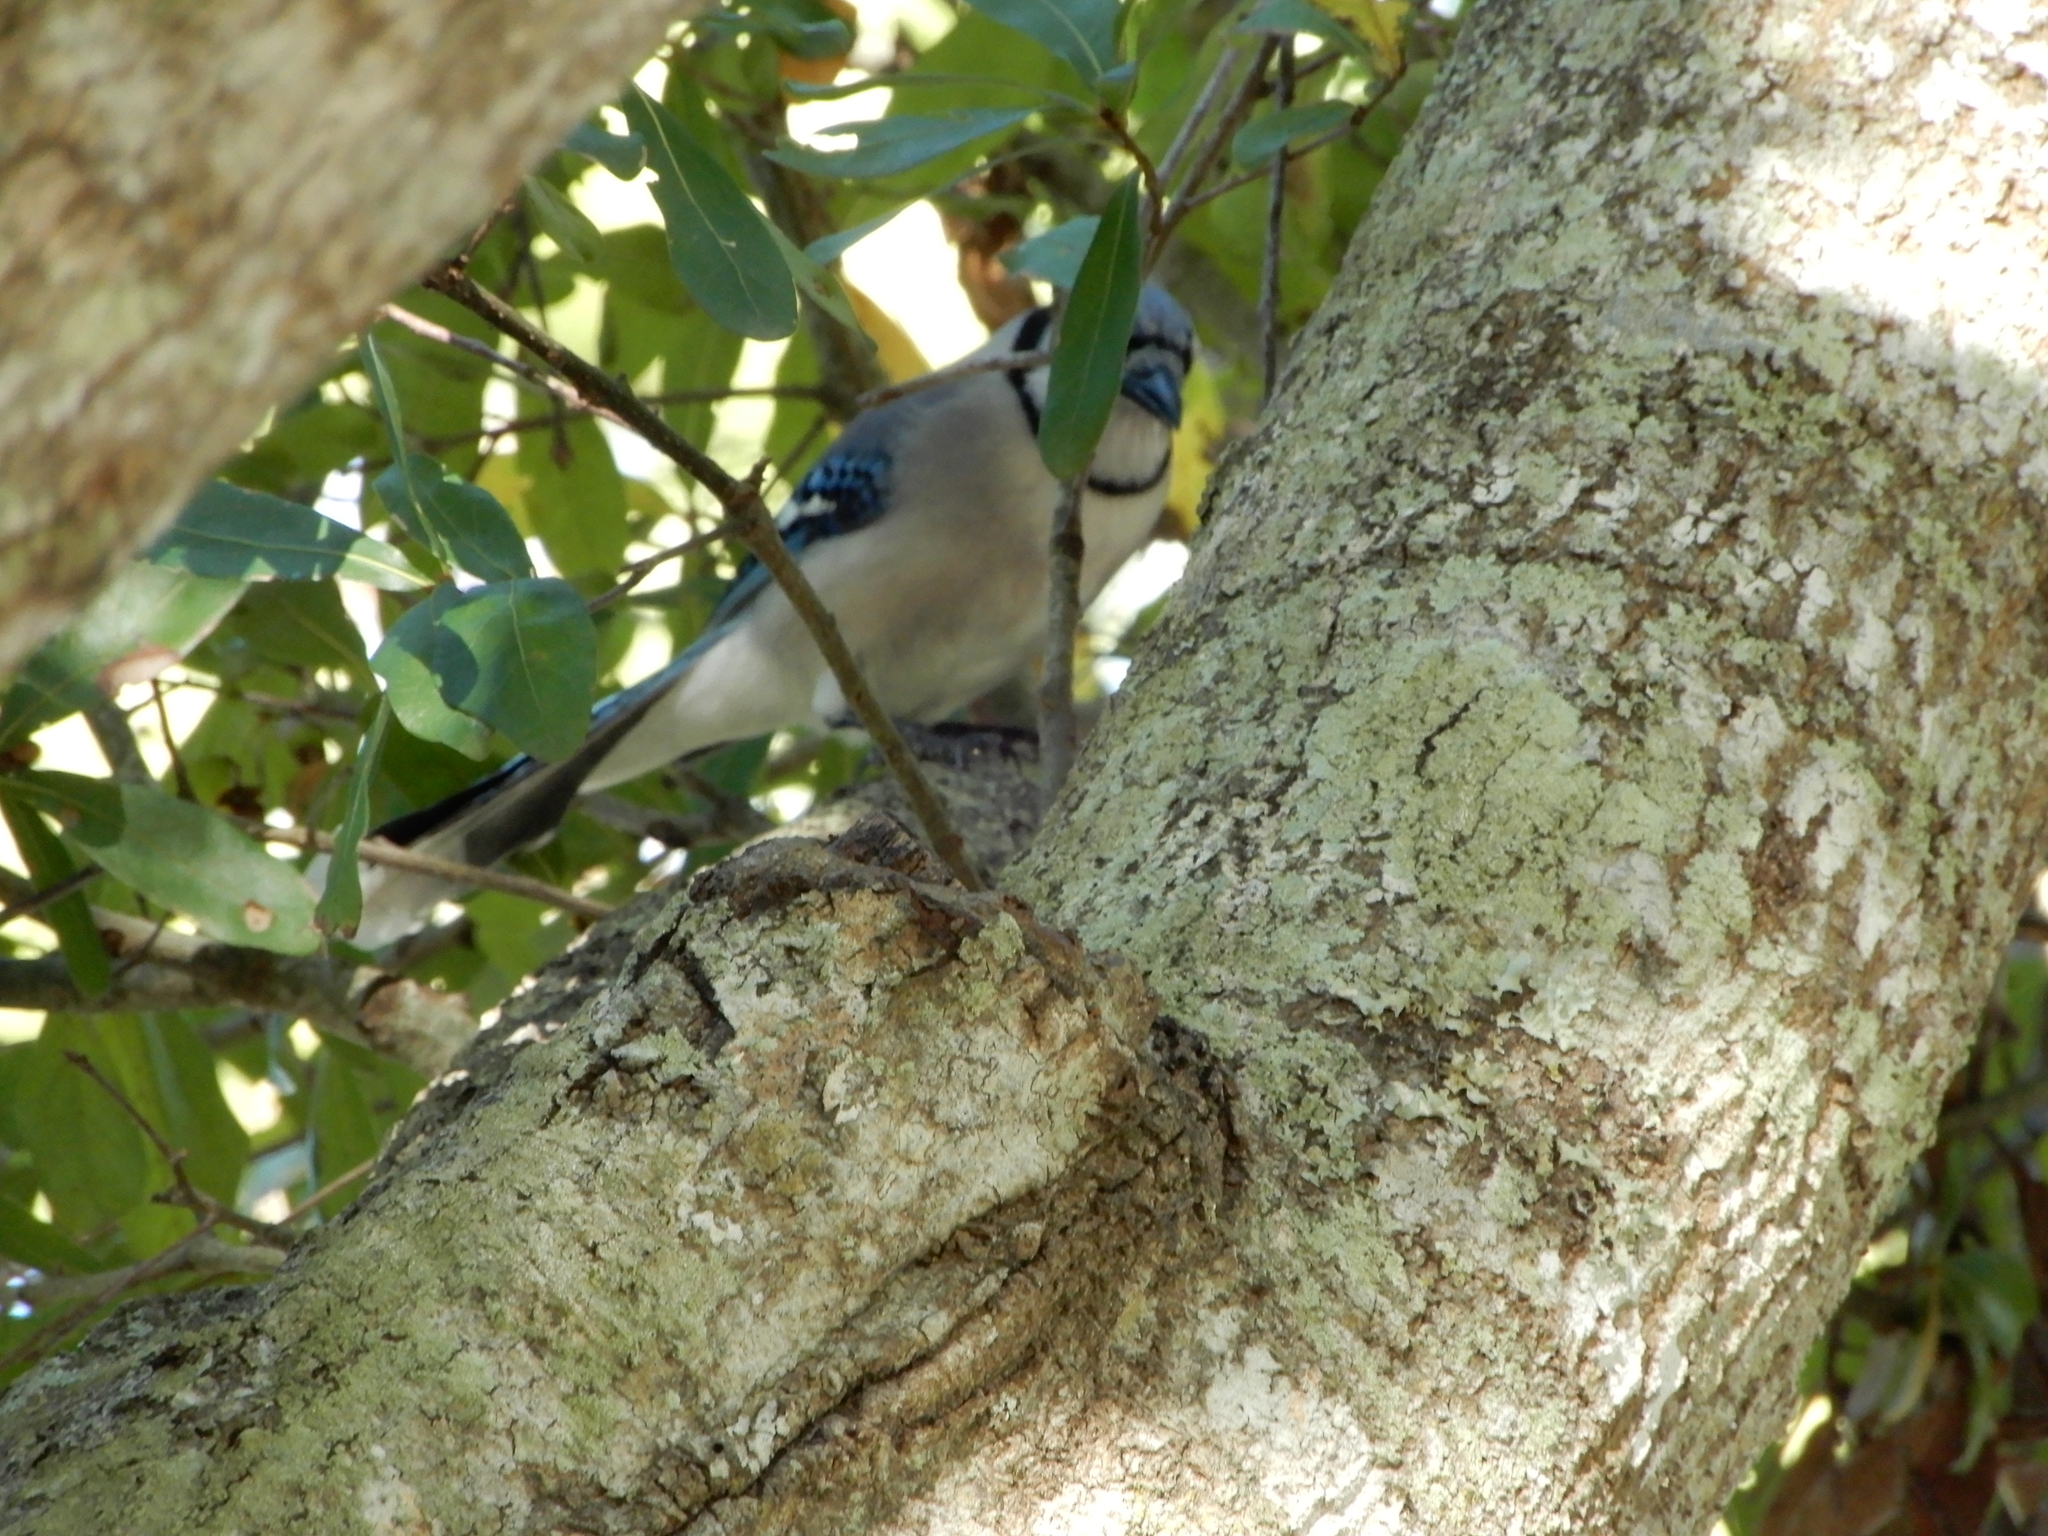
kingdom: Animalia
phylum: Chordata
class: Aves
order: Passeriformes
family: Corvidae
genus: Cyanocitta
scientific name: Cyanocitta cristata
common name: Blue jay
